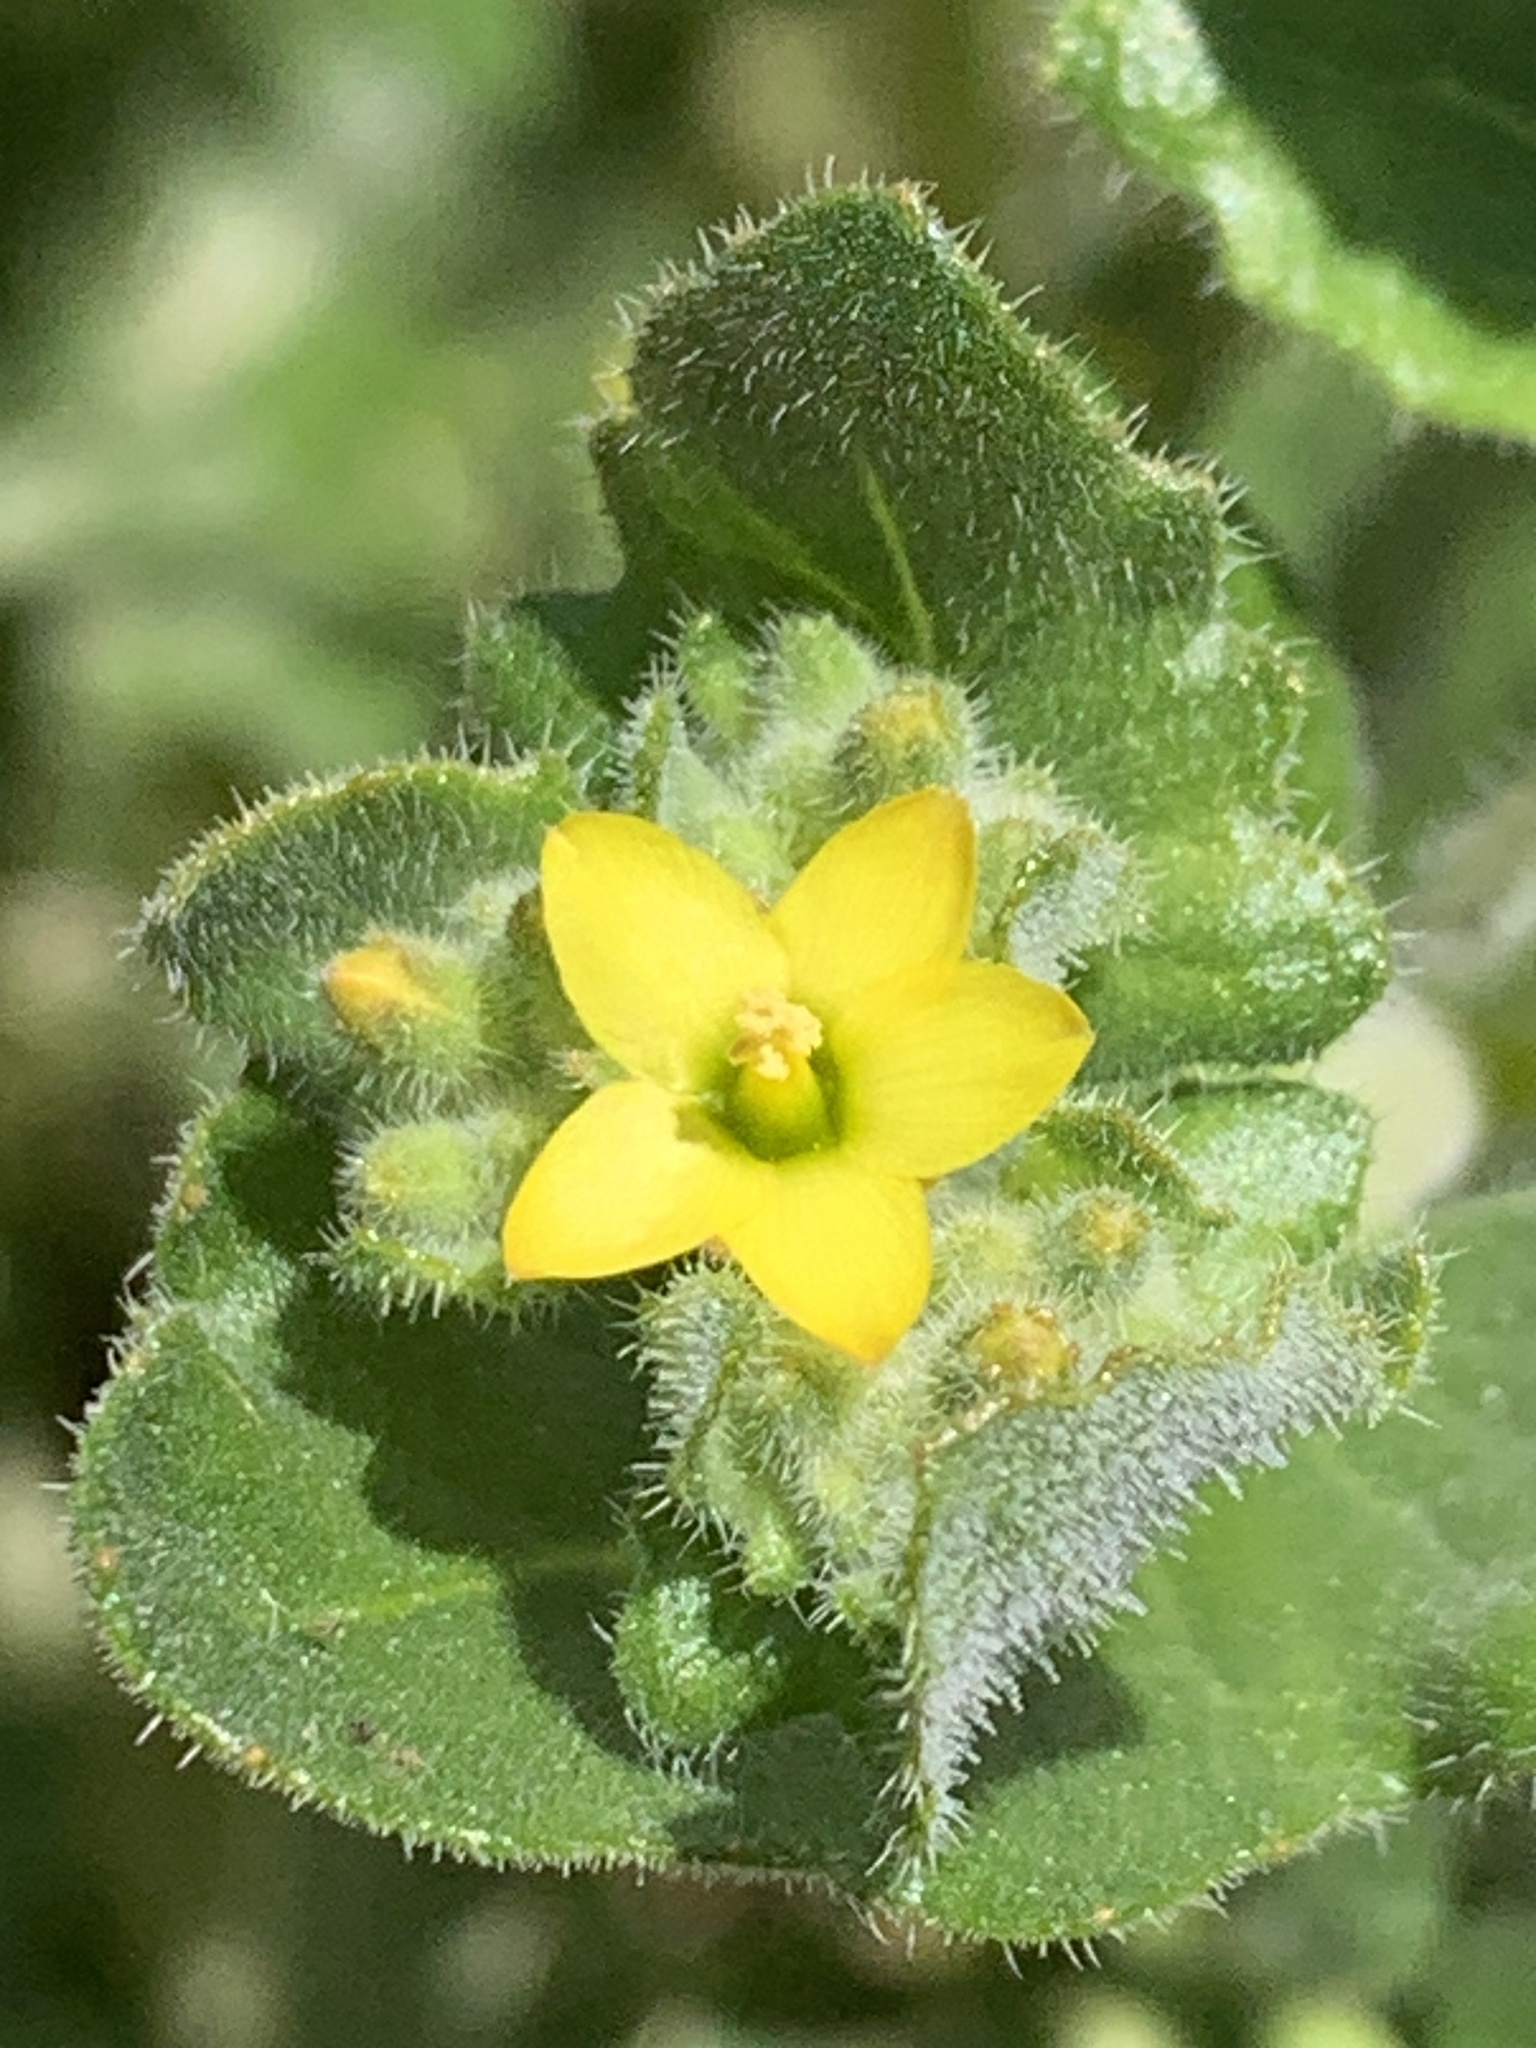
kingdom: Plantae
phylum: Tracheophyta
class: Magnoliopsida
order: Cornales
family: Loasaceae
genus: Mentzelia
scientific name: Mentzelia micrantha
